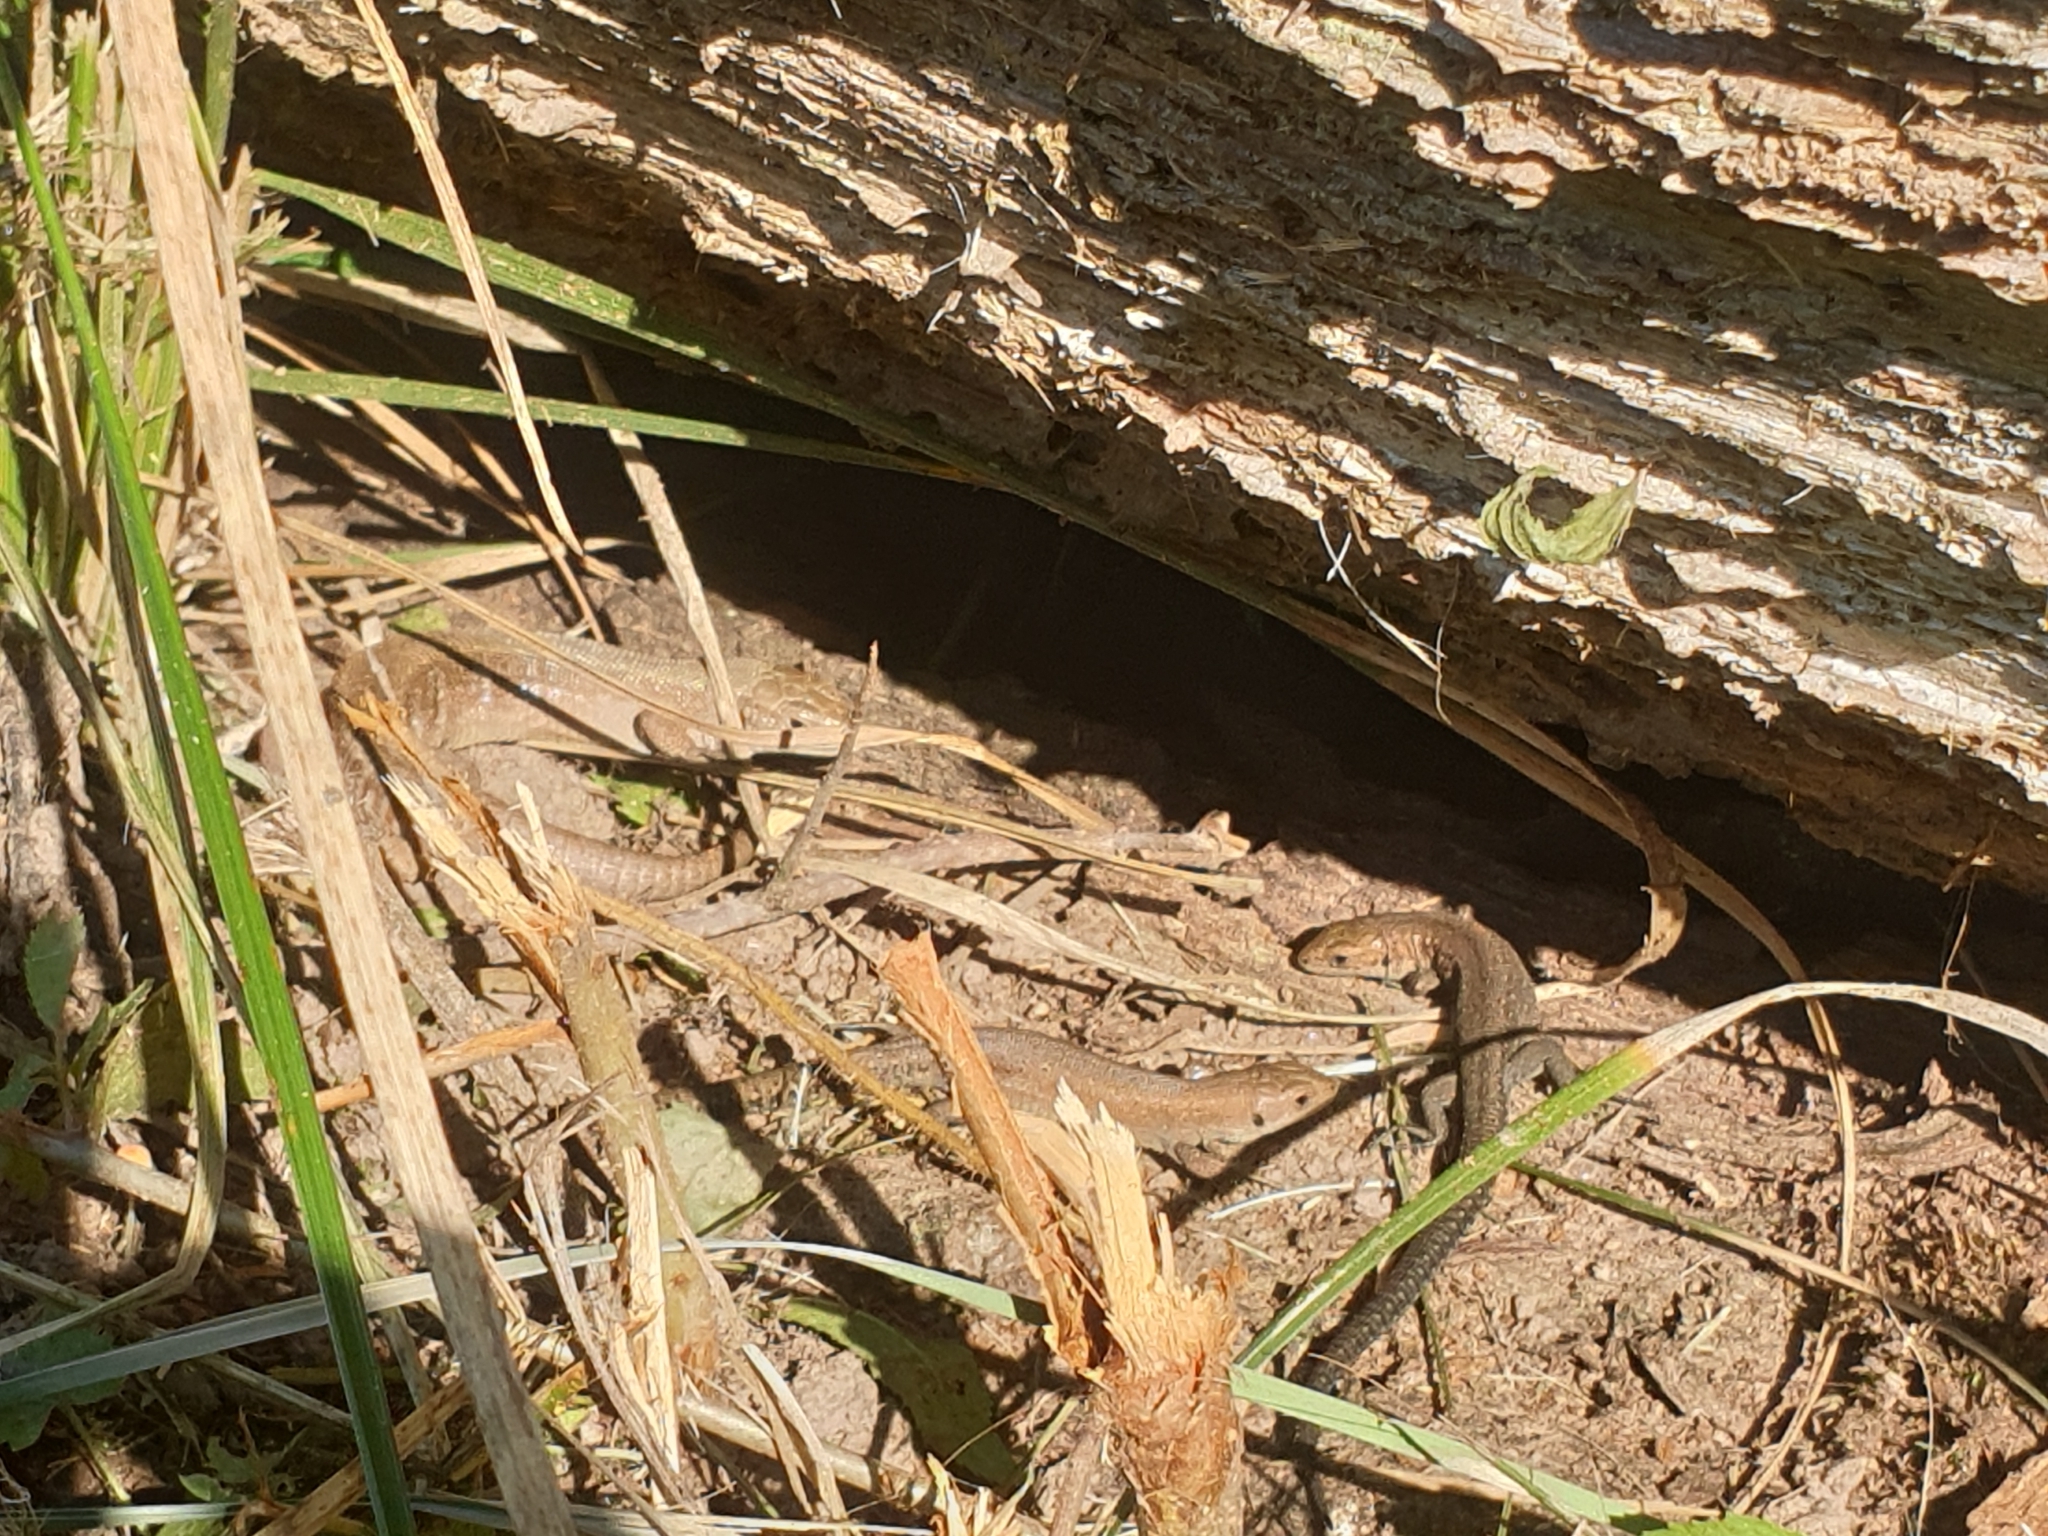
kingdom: Animalia
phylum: Chordata
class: Squamata
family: Lacertidae
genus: Zootoca
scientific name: Zootoca vivipara
